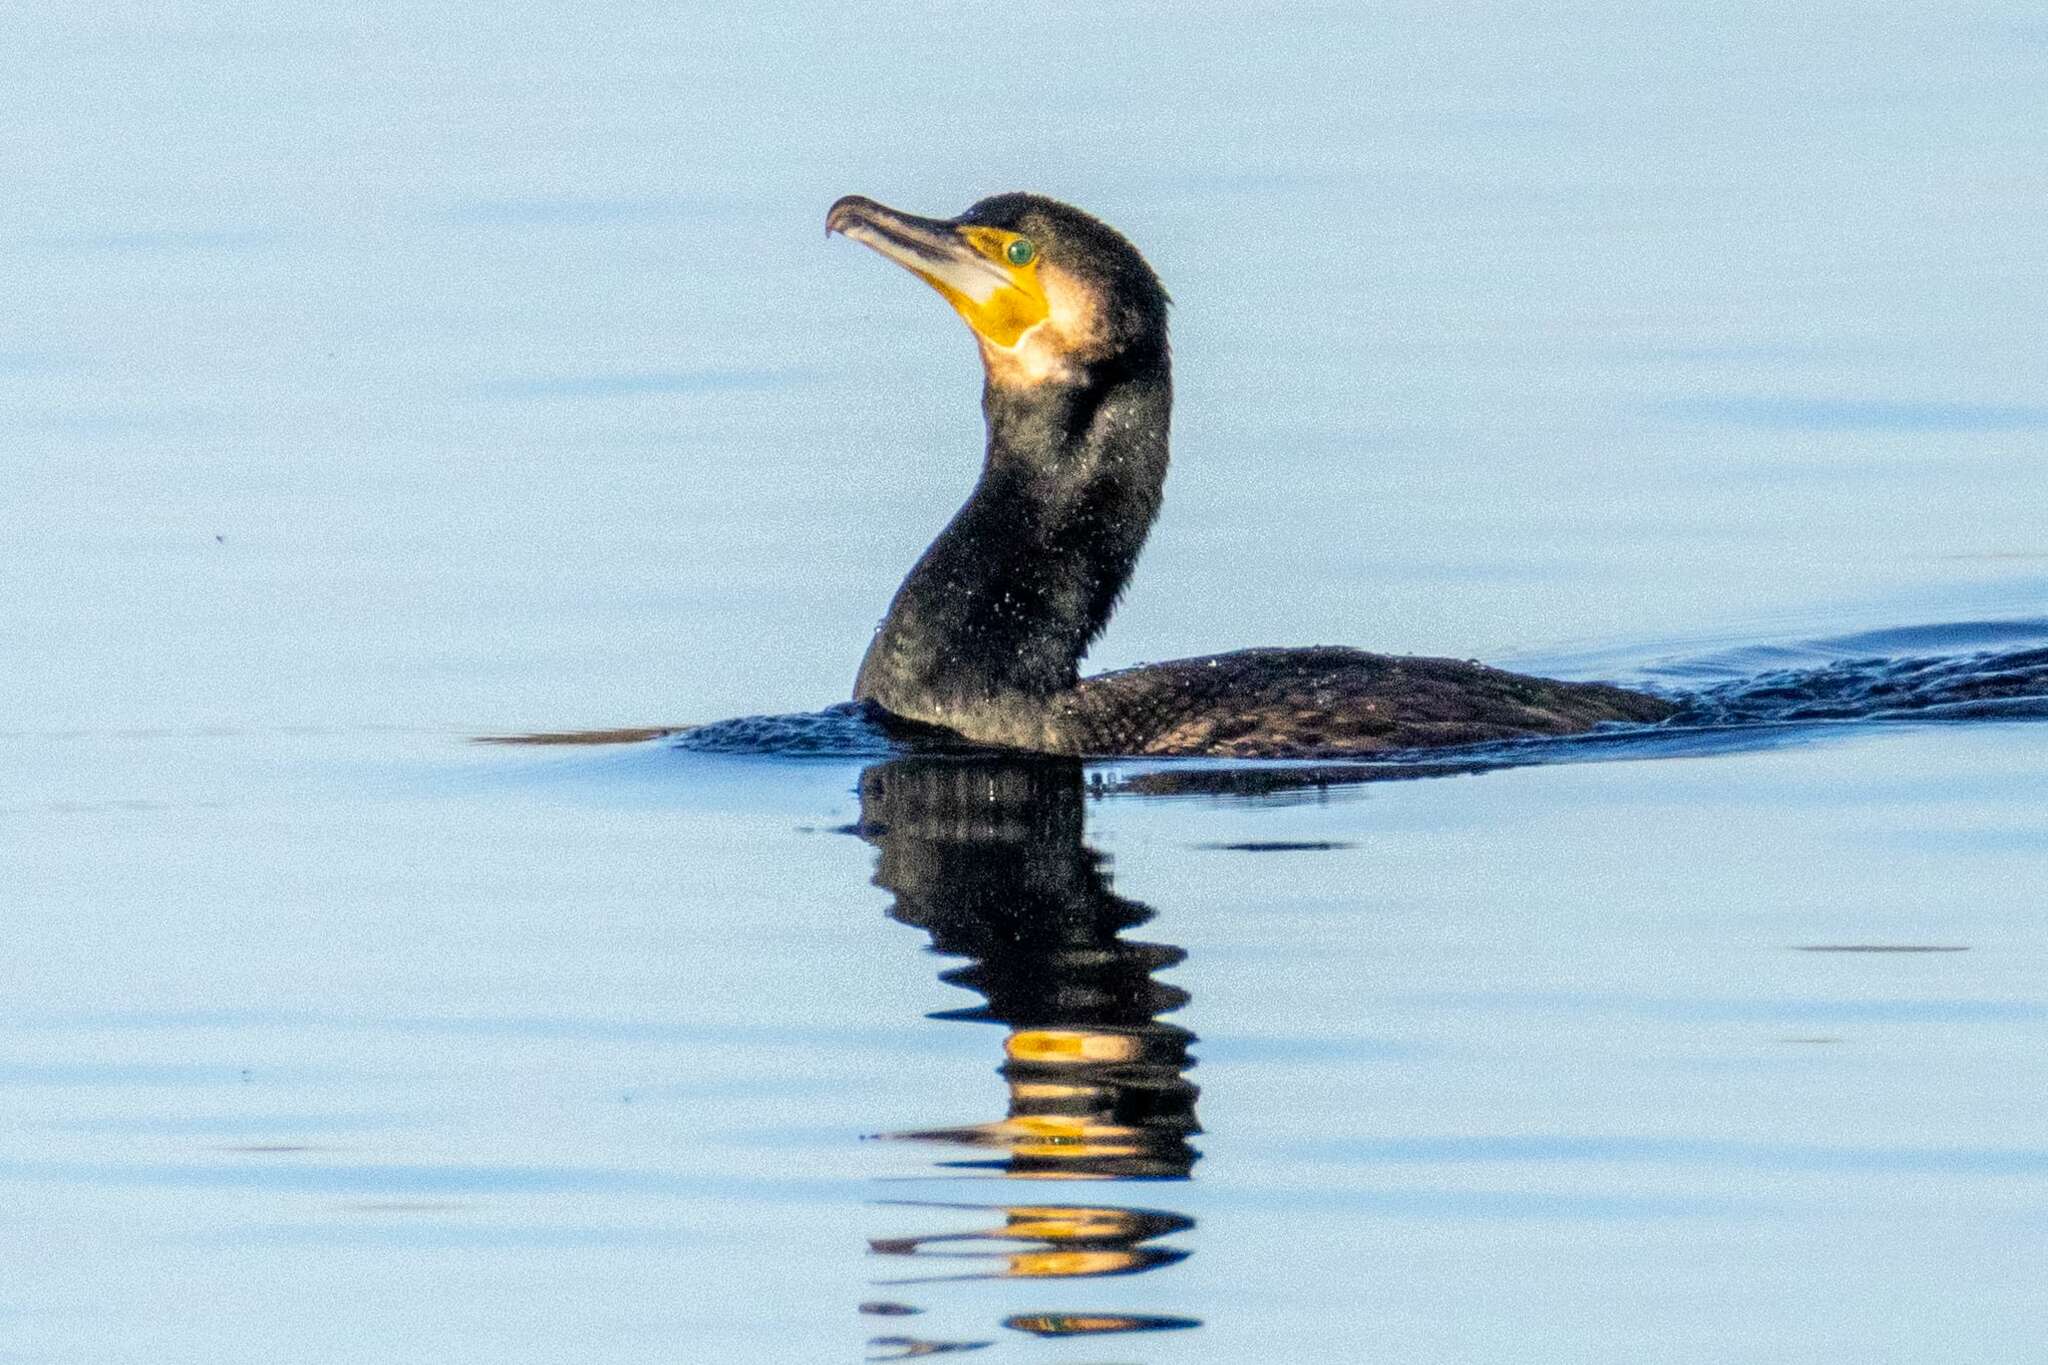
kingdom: Animalia
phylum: Chordata
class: Aves
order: Suliformes
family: Phalacrocoracidae
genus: Phalacrocorax
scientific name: Phalacrocorax carbo
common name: Great cormorant
